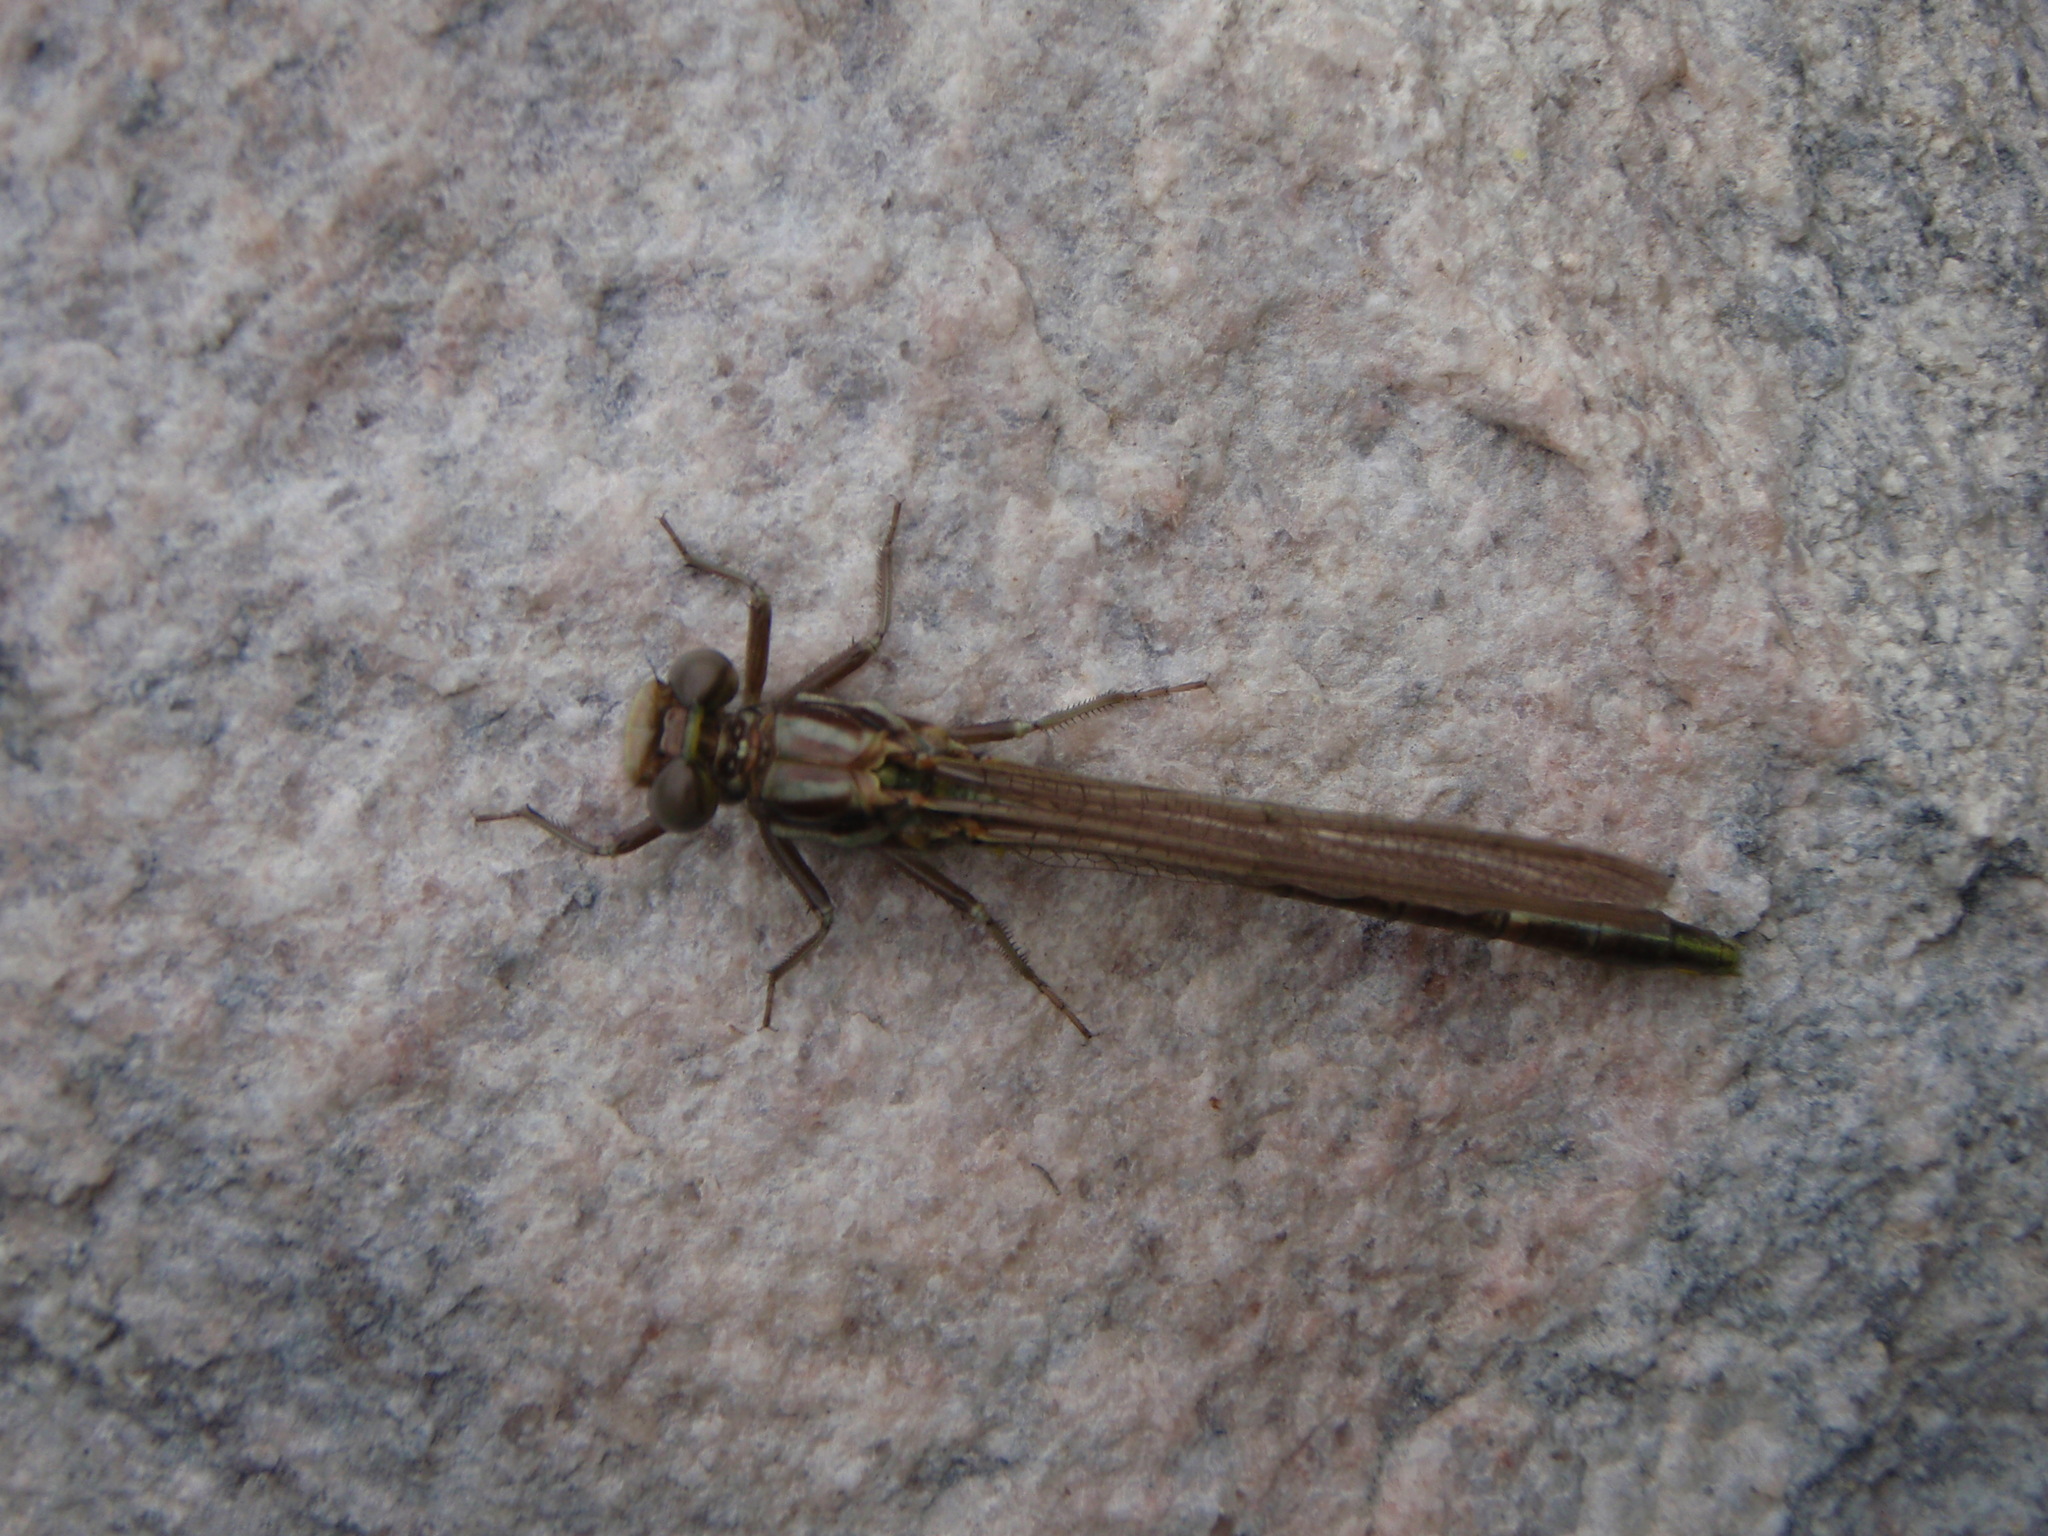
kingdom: Animalia
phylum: Arthropoda
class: Insecta
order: Odonata
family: Gomphidae
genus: Phanogomphus
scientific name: Phanogomphus exilis
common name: Lancet clubtail
